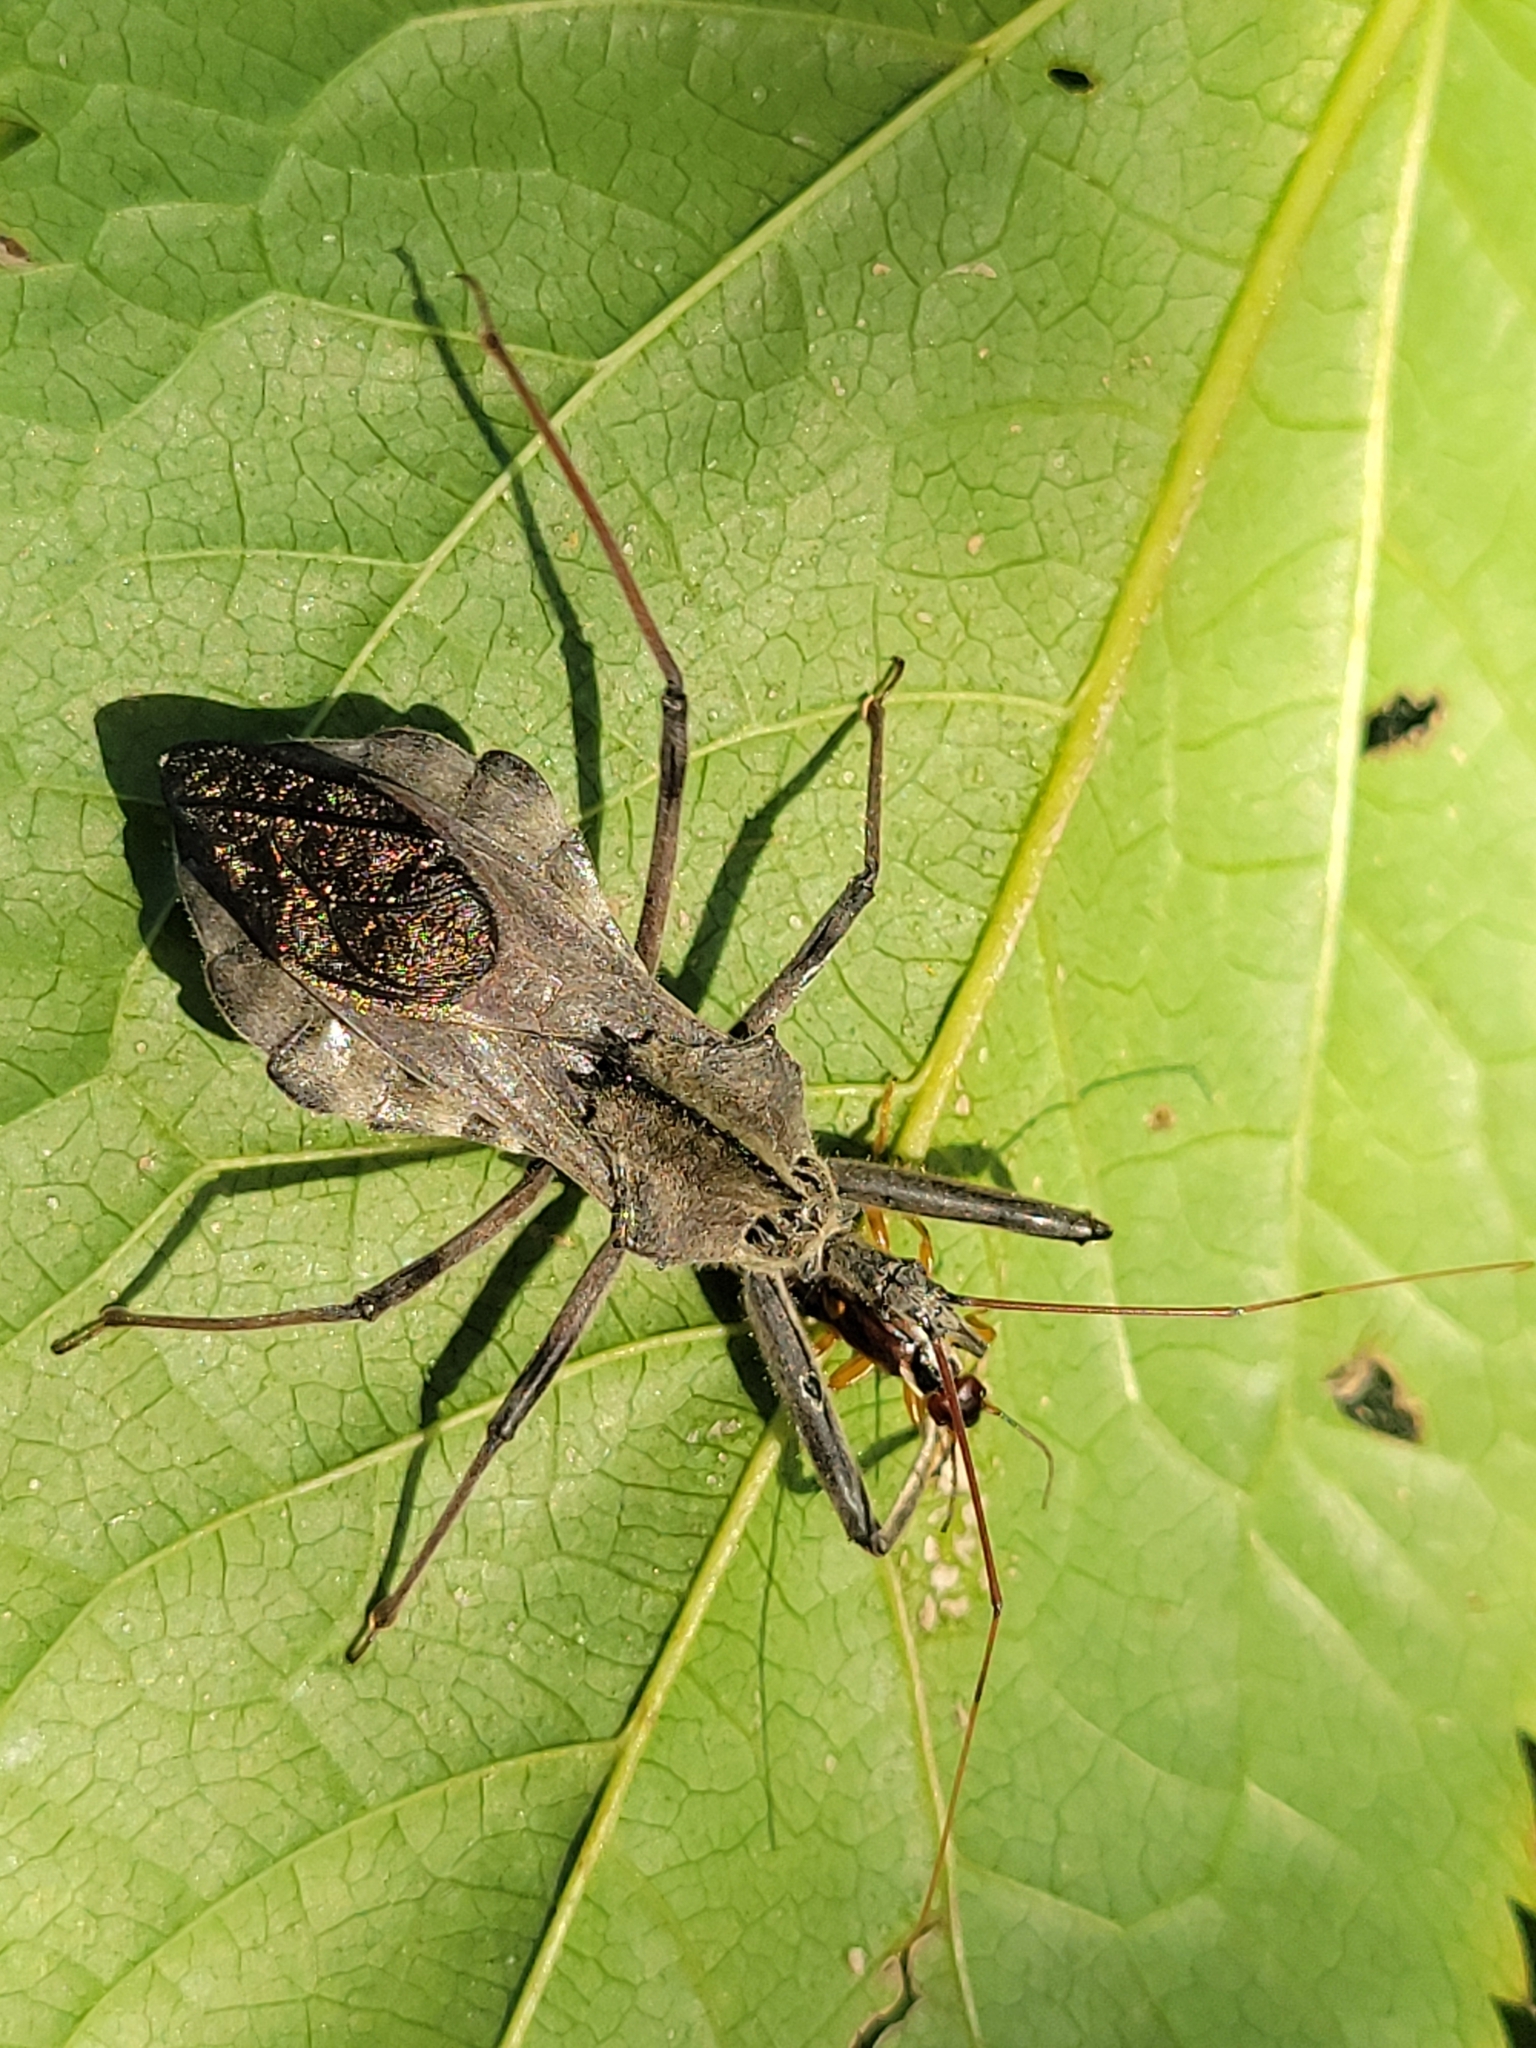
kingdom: Animalia
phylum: Arthropoda
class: Insecta
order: Hemiptera
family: Reduviidae
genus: Arilus
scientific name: Arilus cristatus
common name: North american wheel bug
